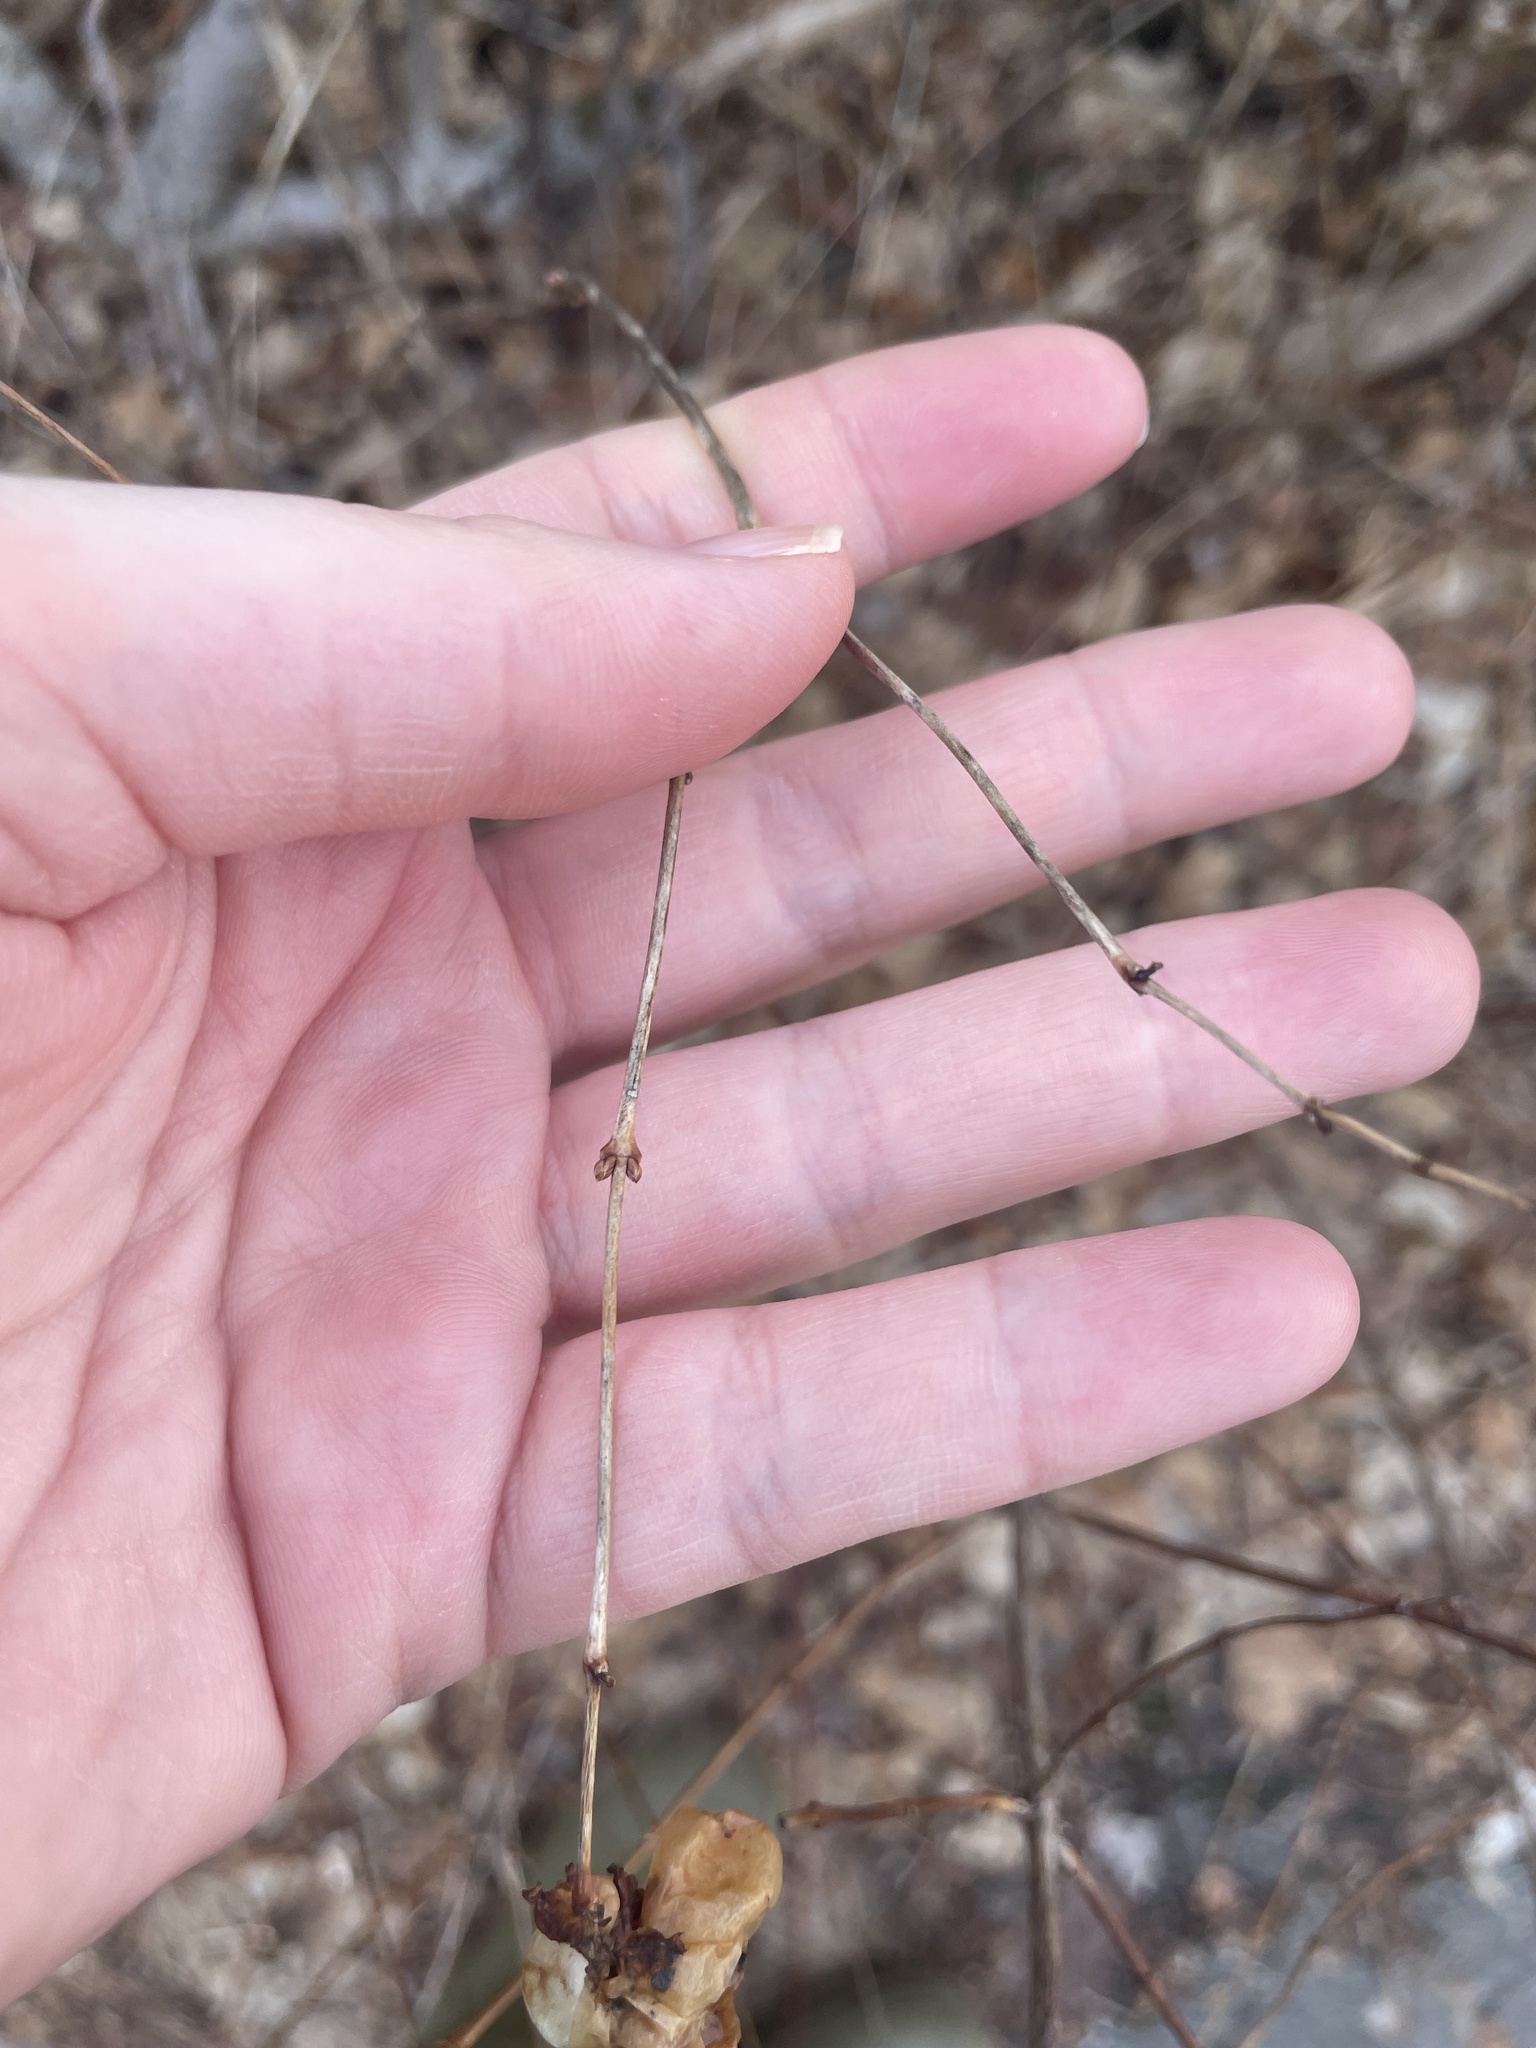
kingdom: Plantae
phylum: Tracheophyta
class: Magnoliopsida
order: Dipsacales
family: Caprifoliaceae
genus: Symphoricarpos
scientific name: Symphoricarpos albus
